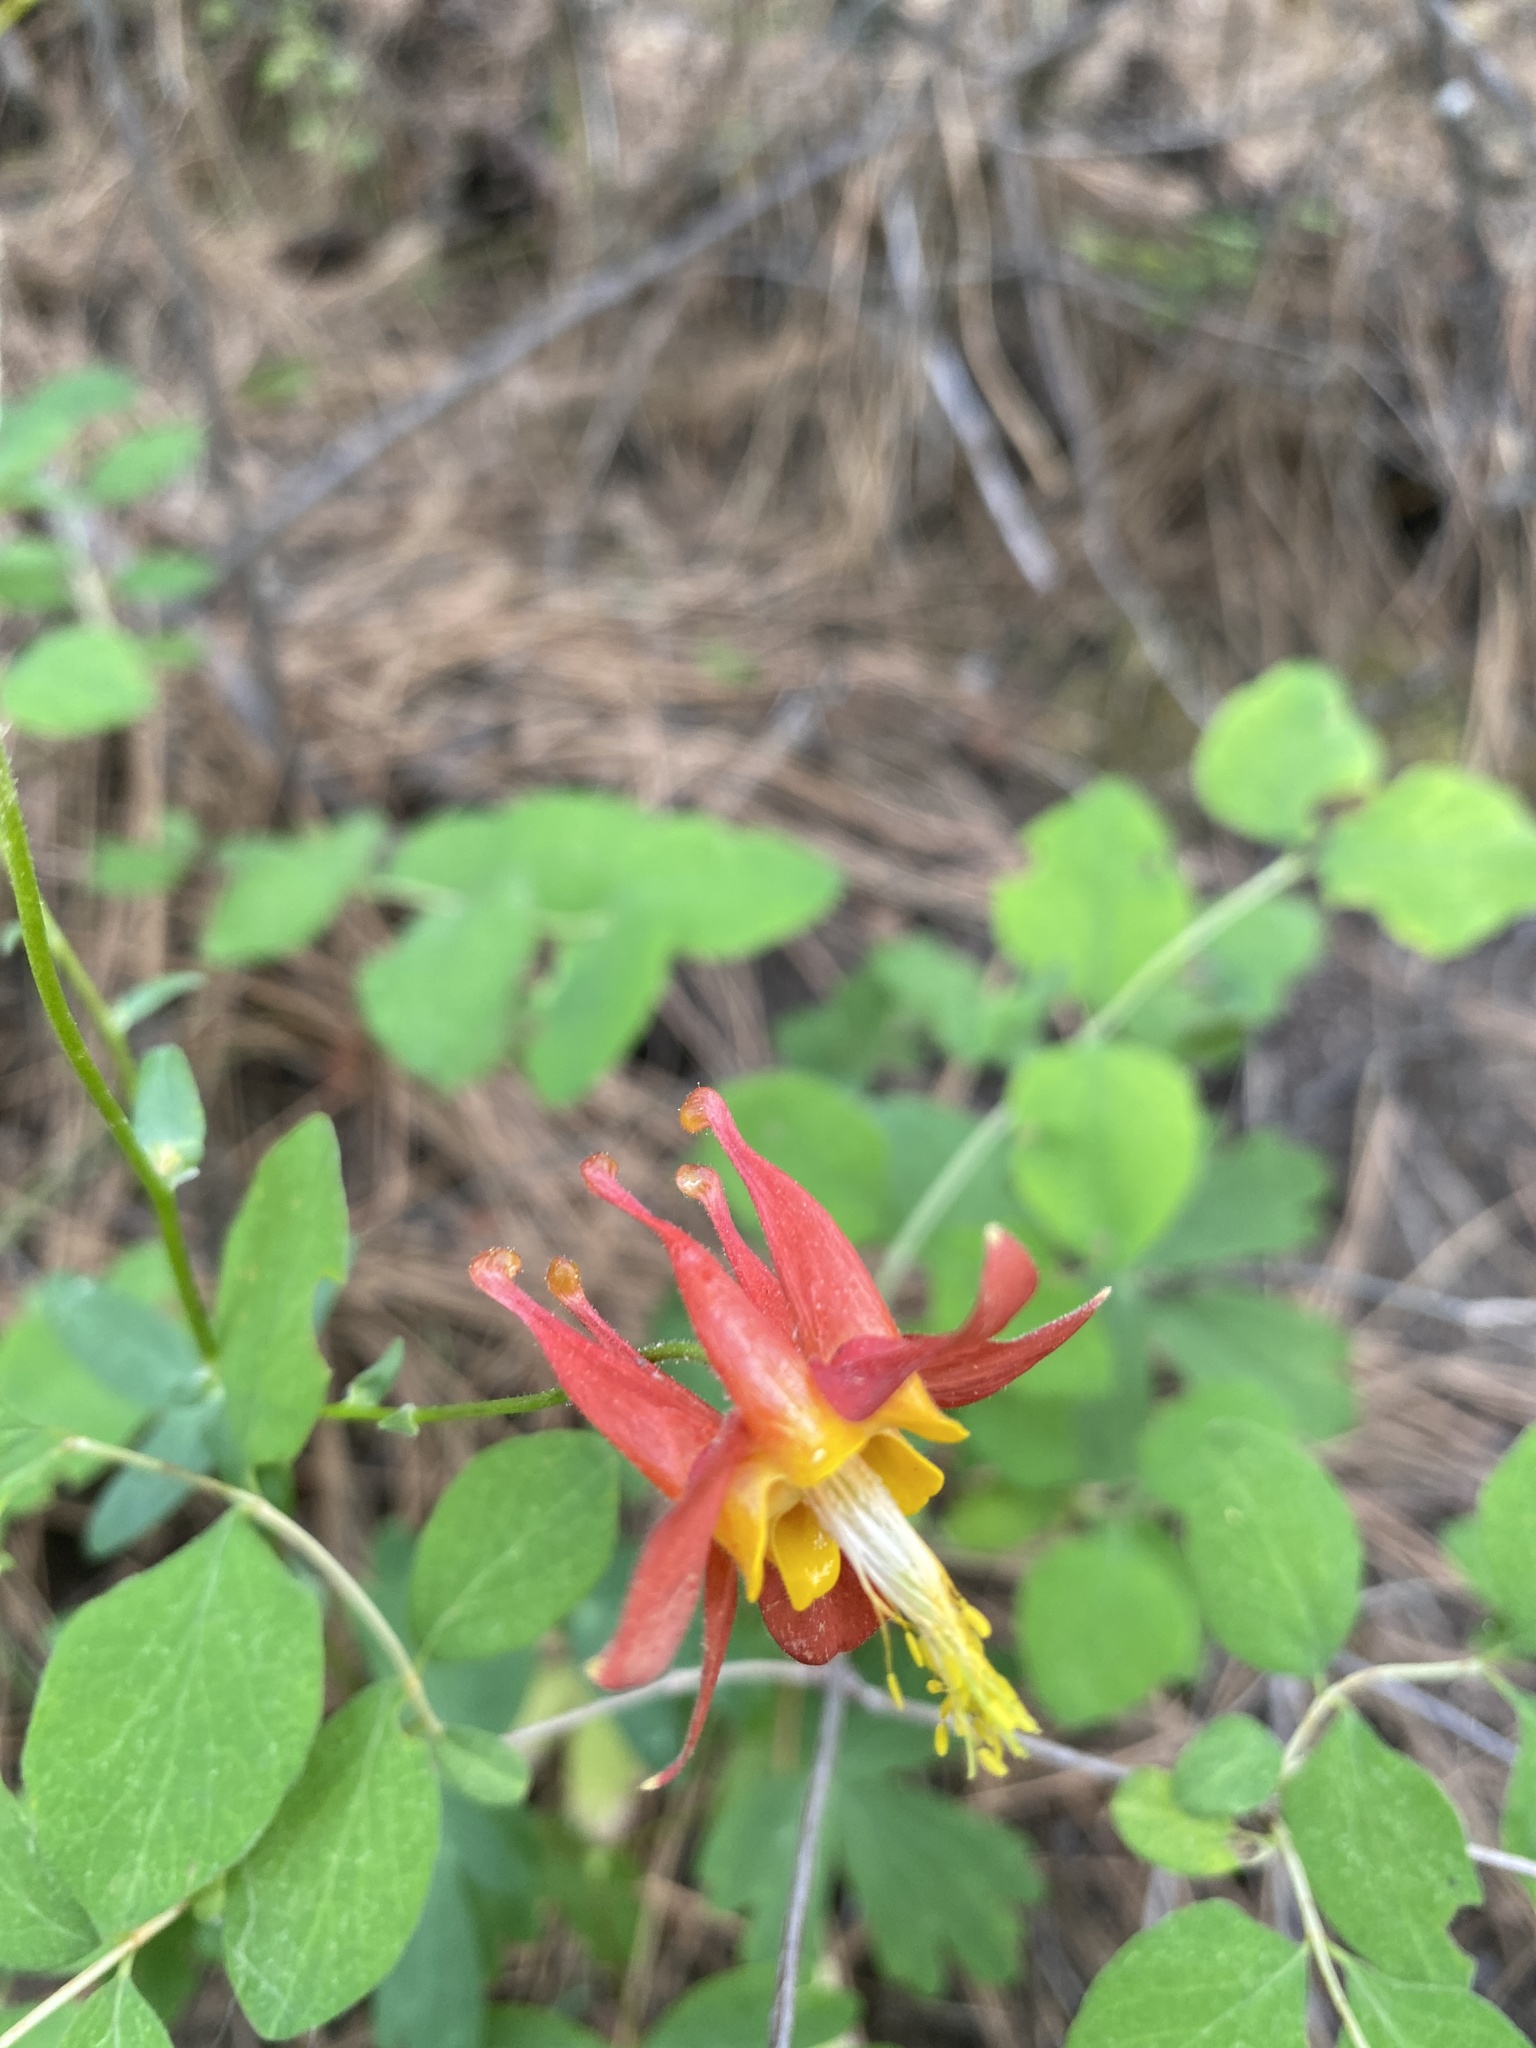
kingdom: Plantae
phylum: Tracheophyta
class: Magnoliopsida
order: Ranunculales
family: Ranunculaceae
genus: Aquilegia
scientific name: Aquilegia formosa
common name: Sitka columbine
